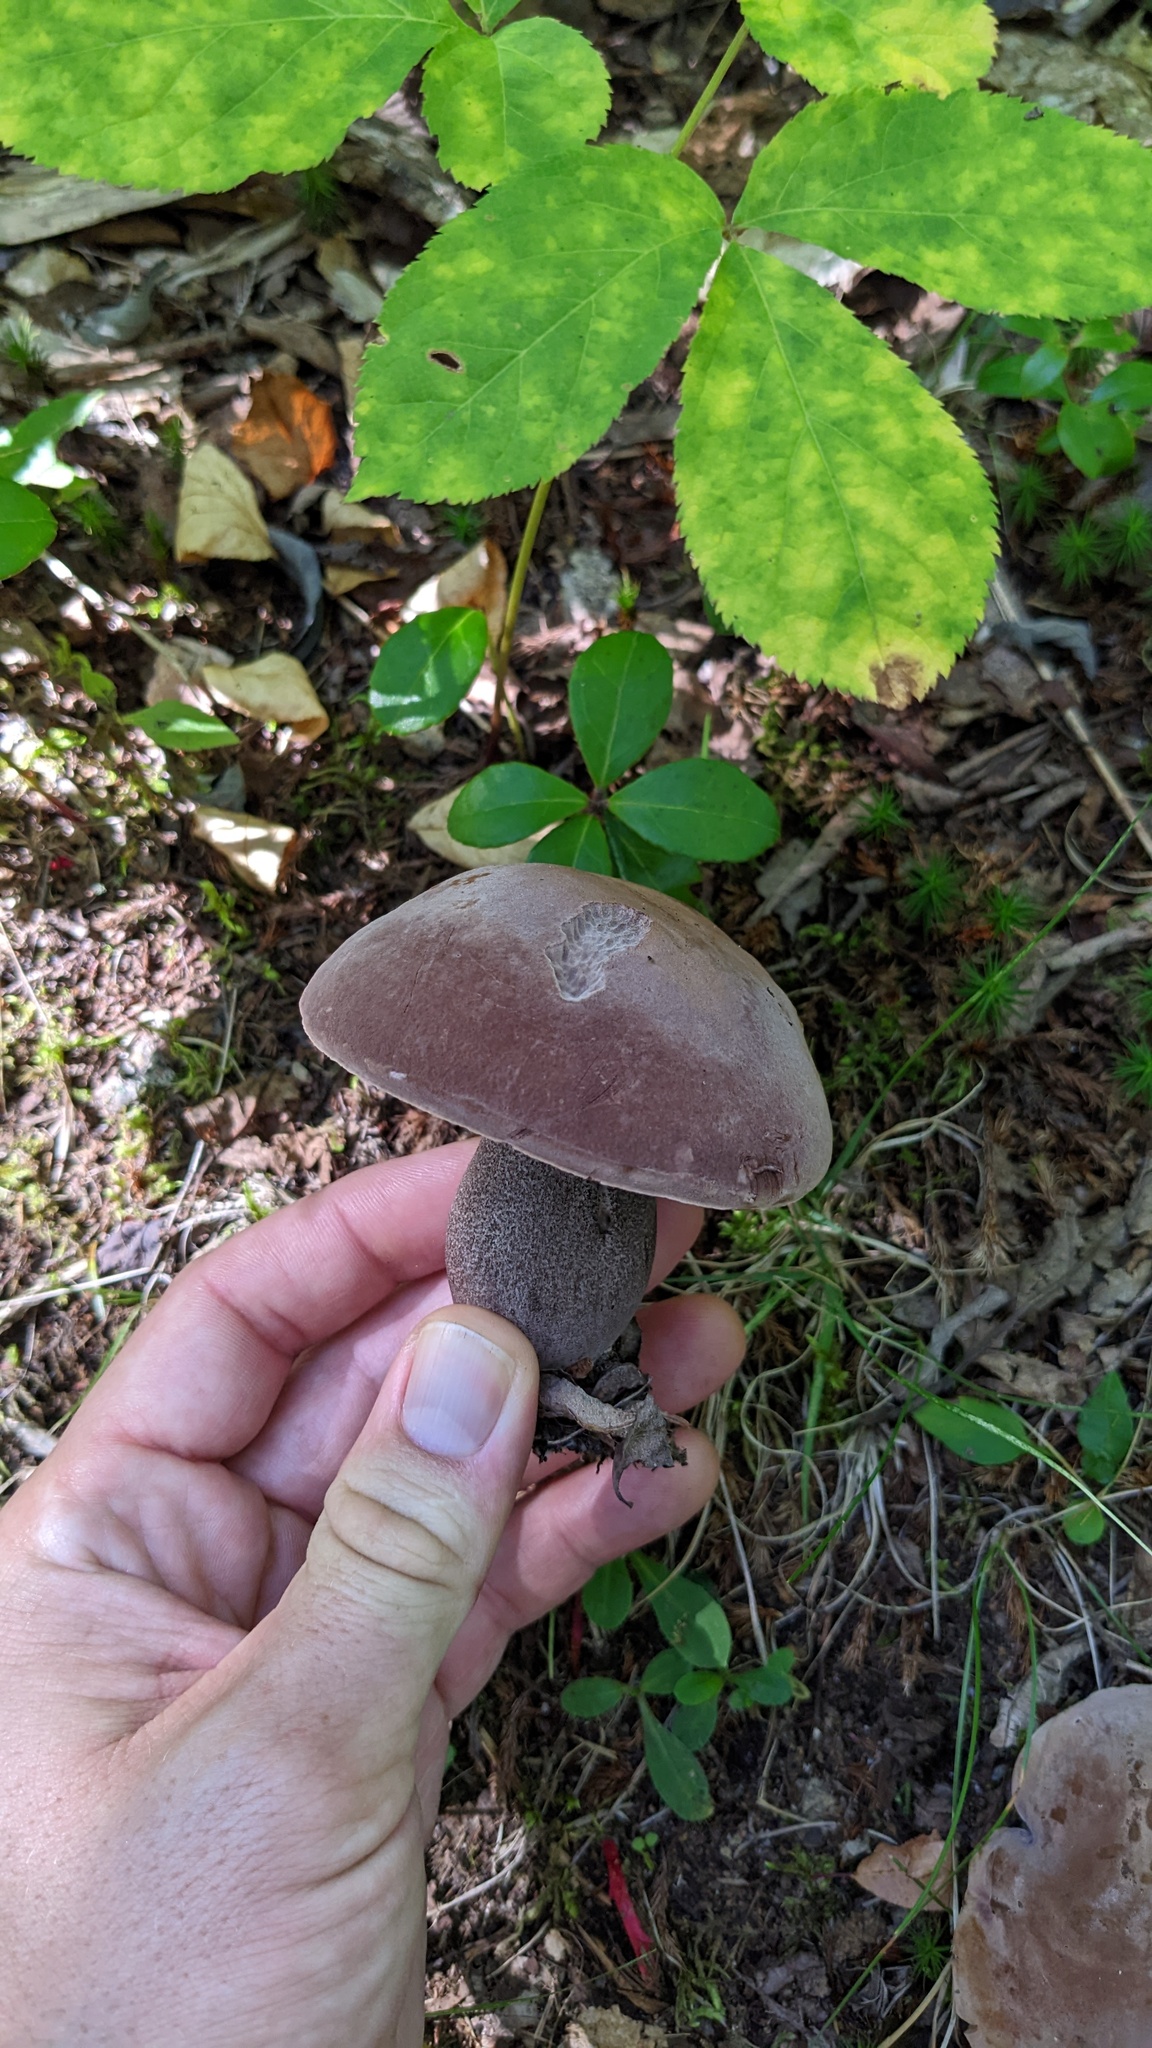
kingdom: Fungi
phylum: Basidiomycota
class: Agaricomycetes
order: Boletales
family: Boletaceae
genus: Sutorius
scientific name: Sutorius eximius
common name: Lilac-brown bolete
